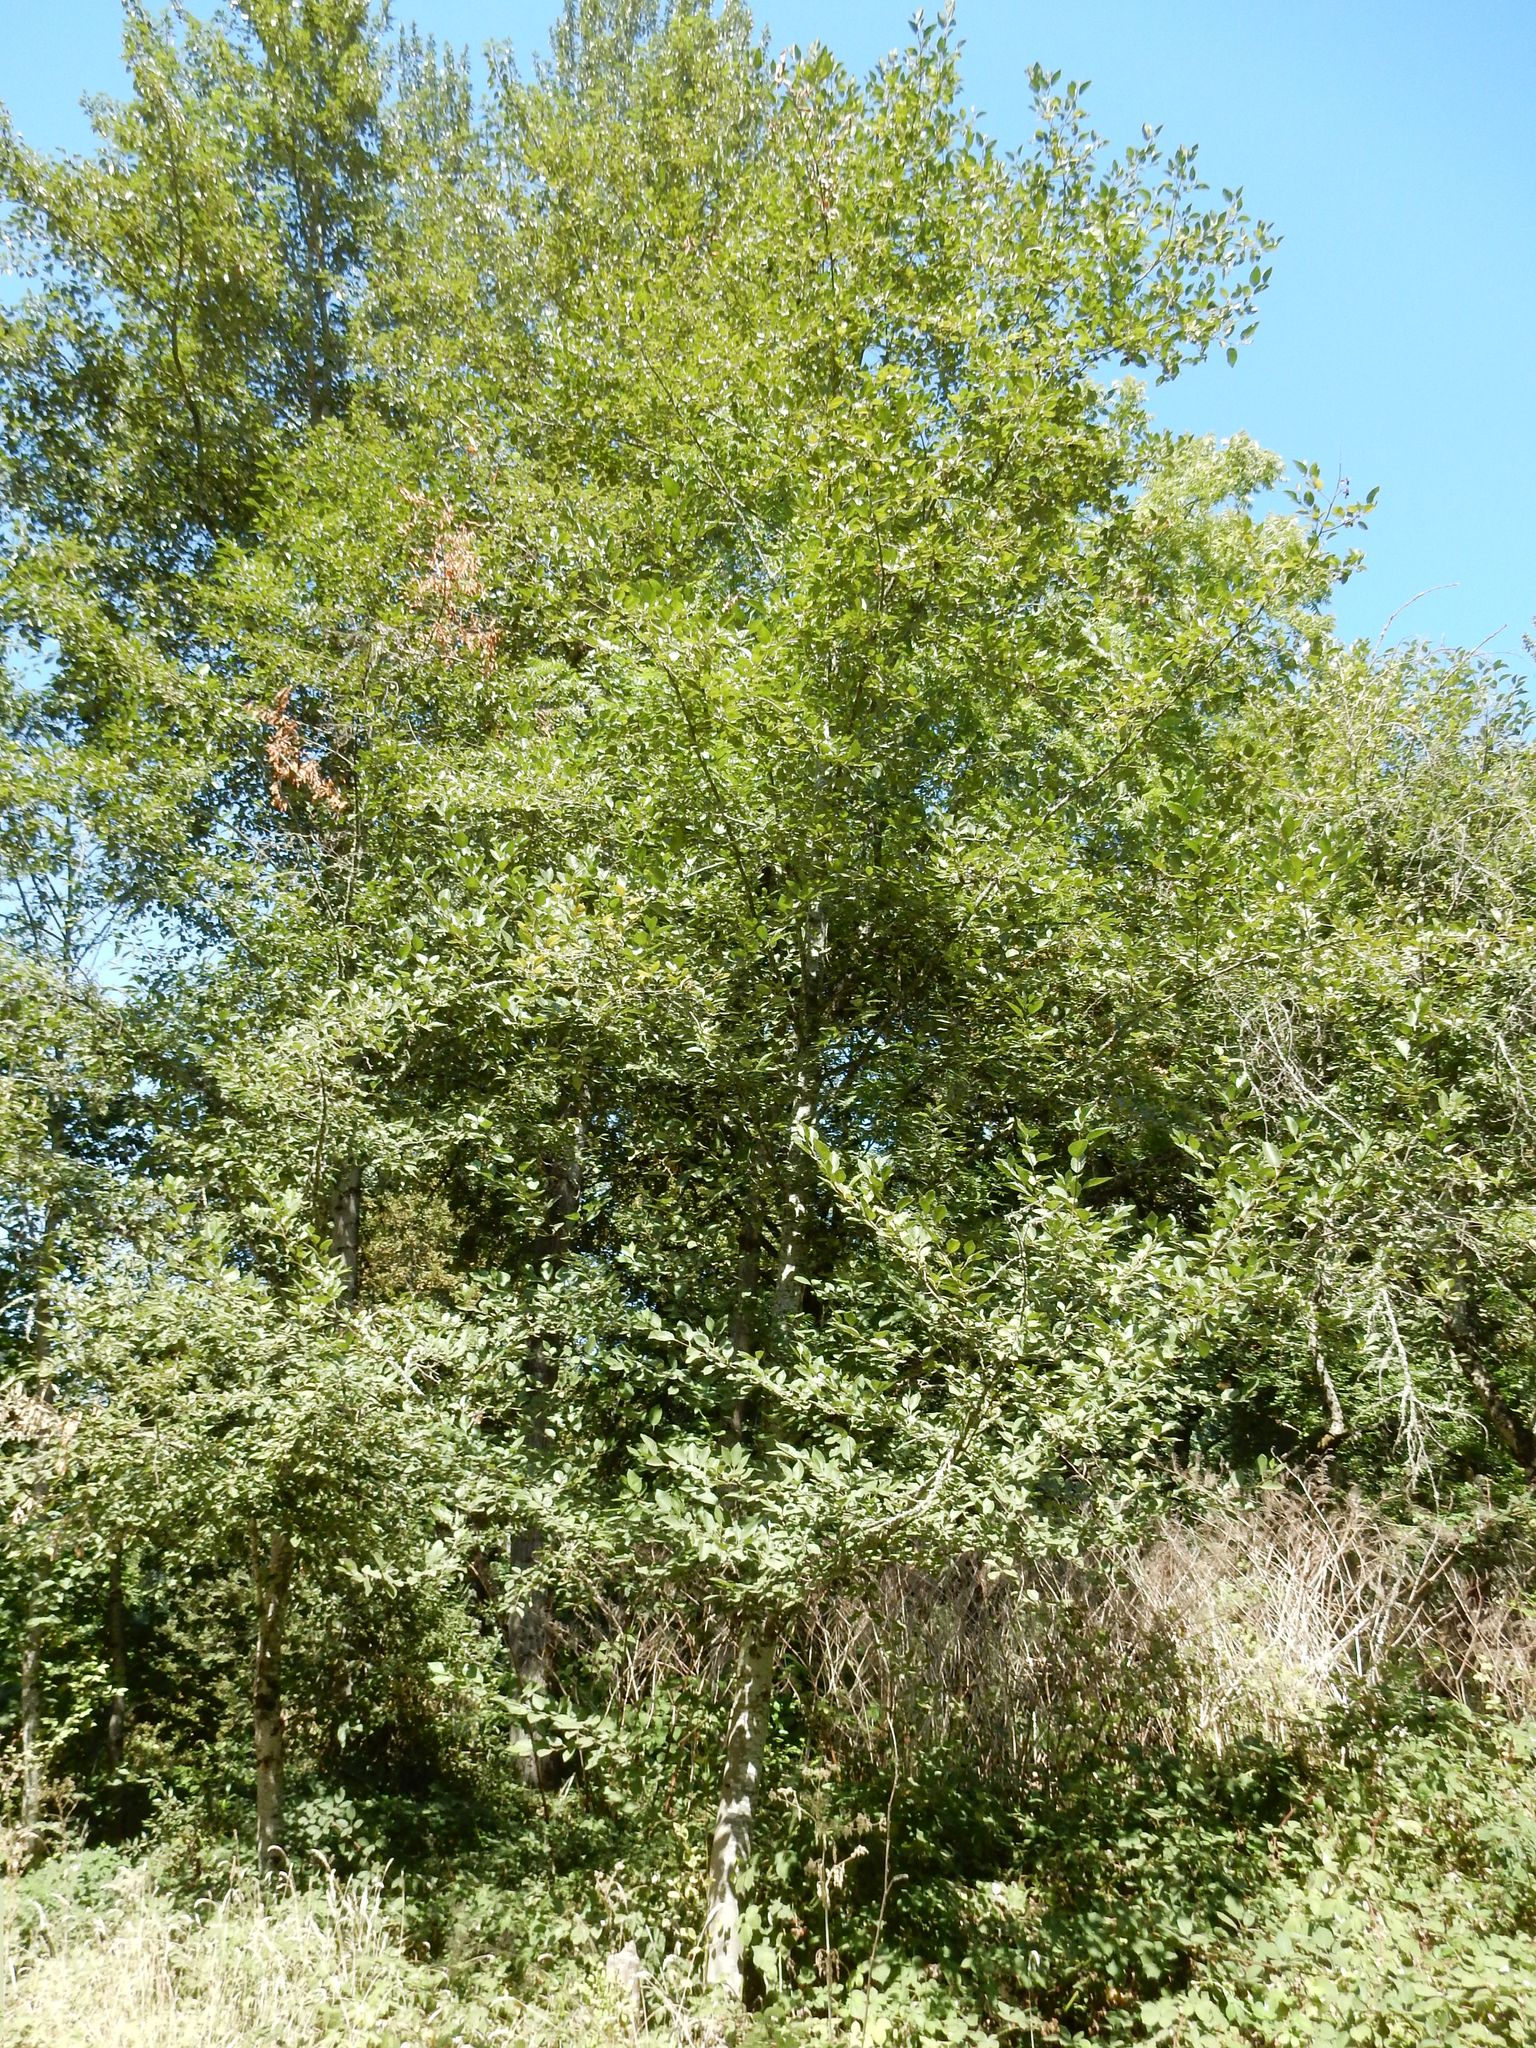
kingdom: Plantae
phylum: Tracheophyta
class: Magnoliopsida
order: Fagales
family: Betulaceae
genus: Alnus
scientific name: Alnus rubra
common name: Red alder
